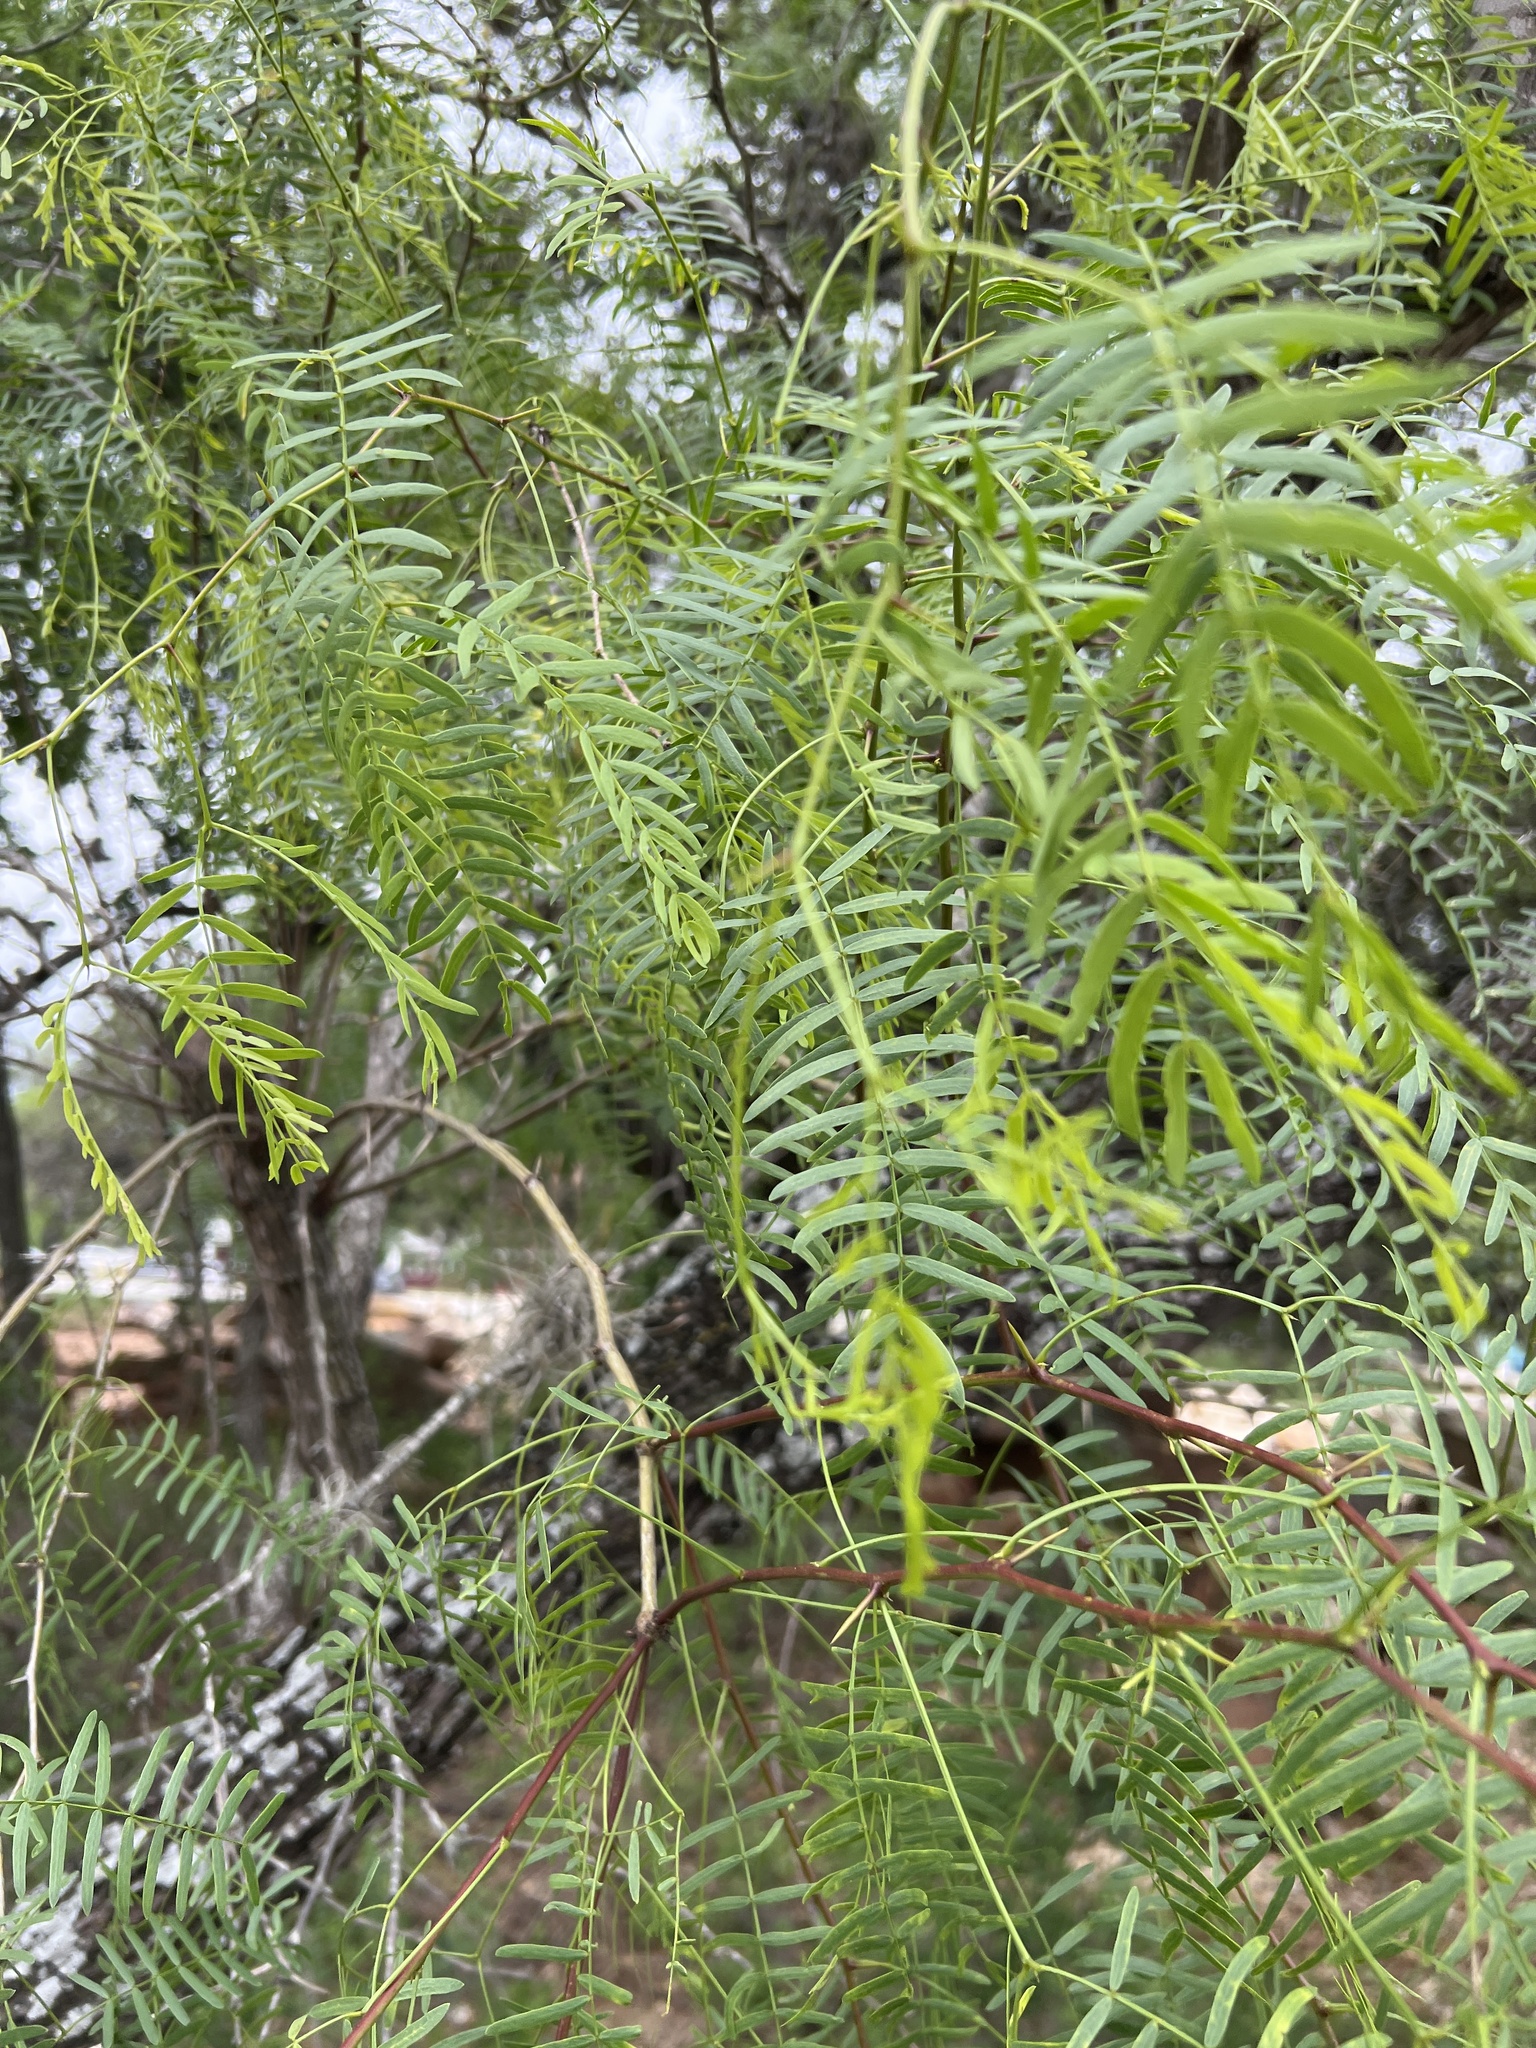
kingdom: Plantae
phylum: Tracheophyta
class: Magnoliopsida
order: Fabales
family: Fabaceae
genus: Prosopis
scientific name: Prosopis glandulosa
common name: Honey mesquite
